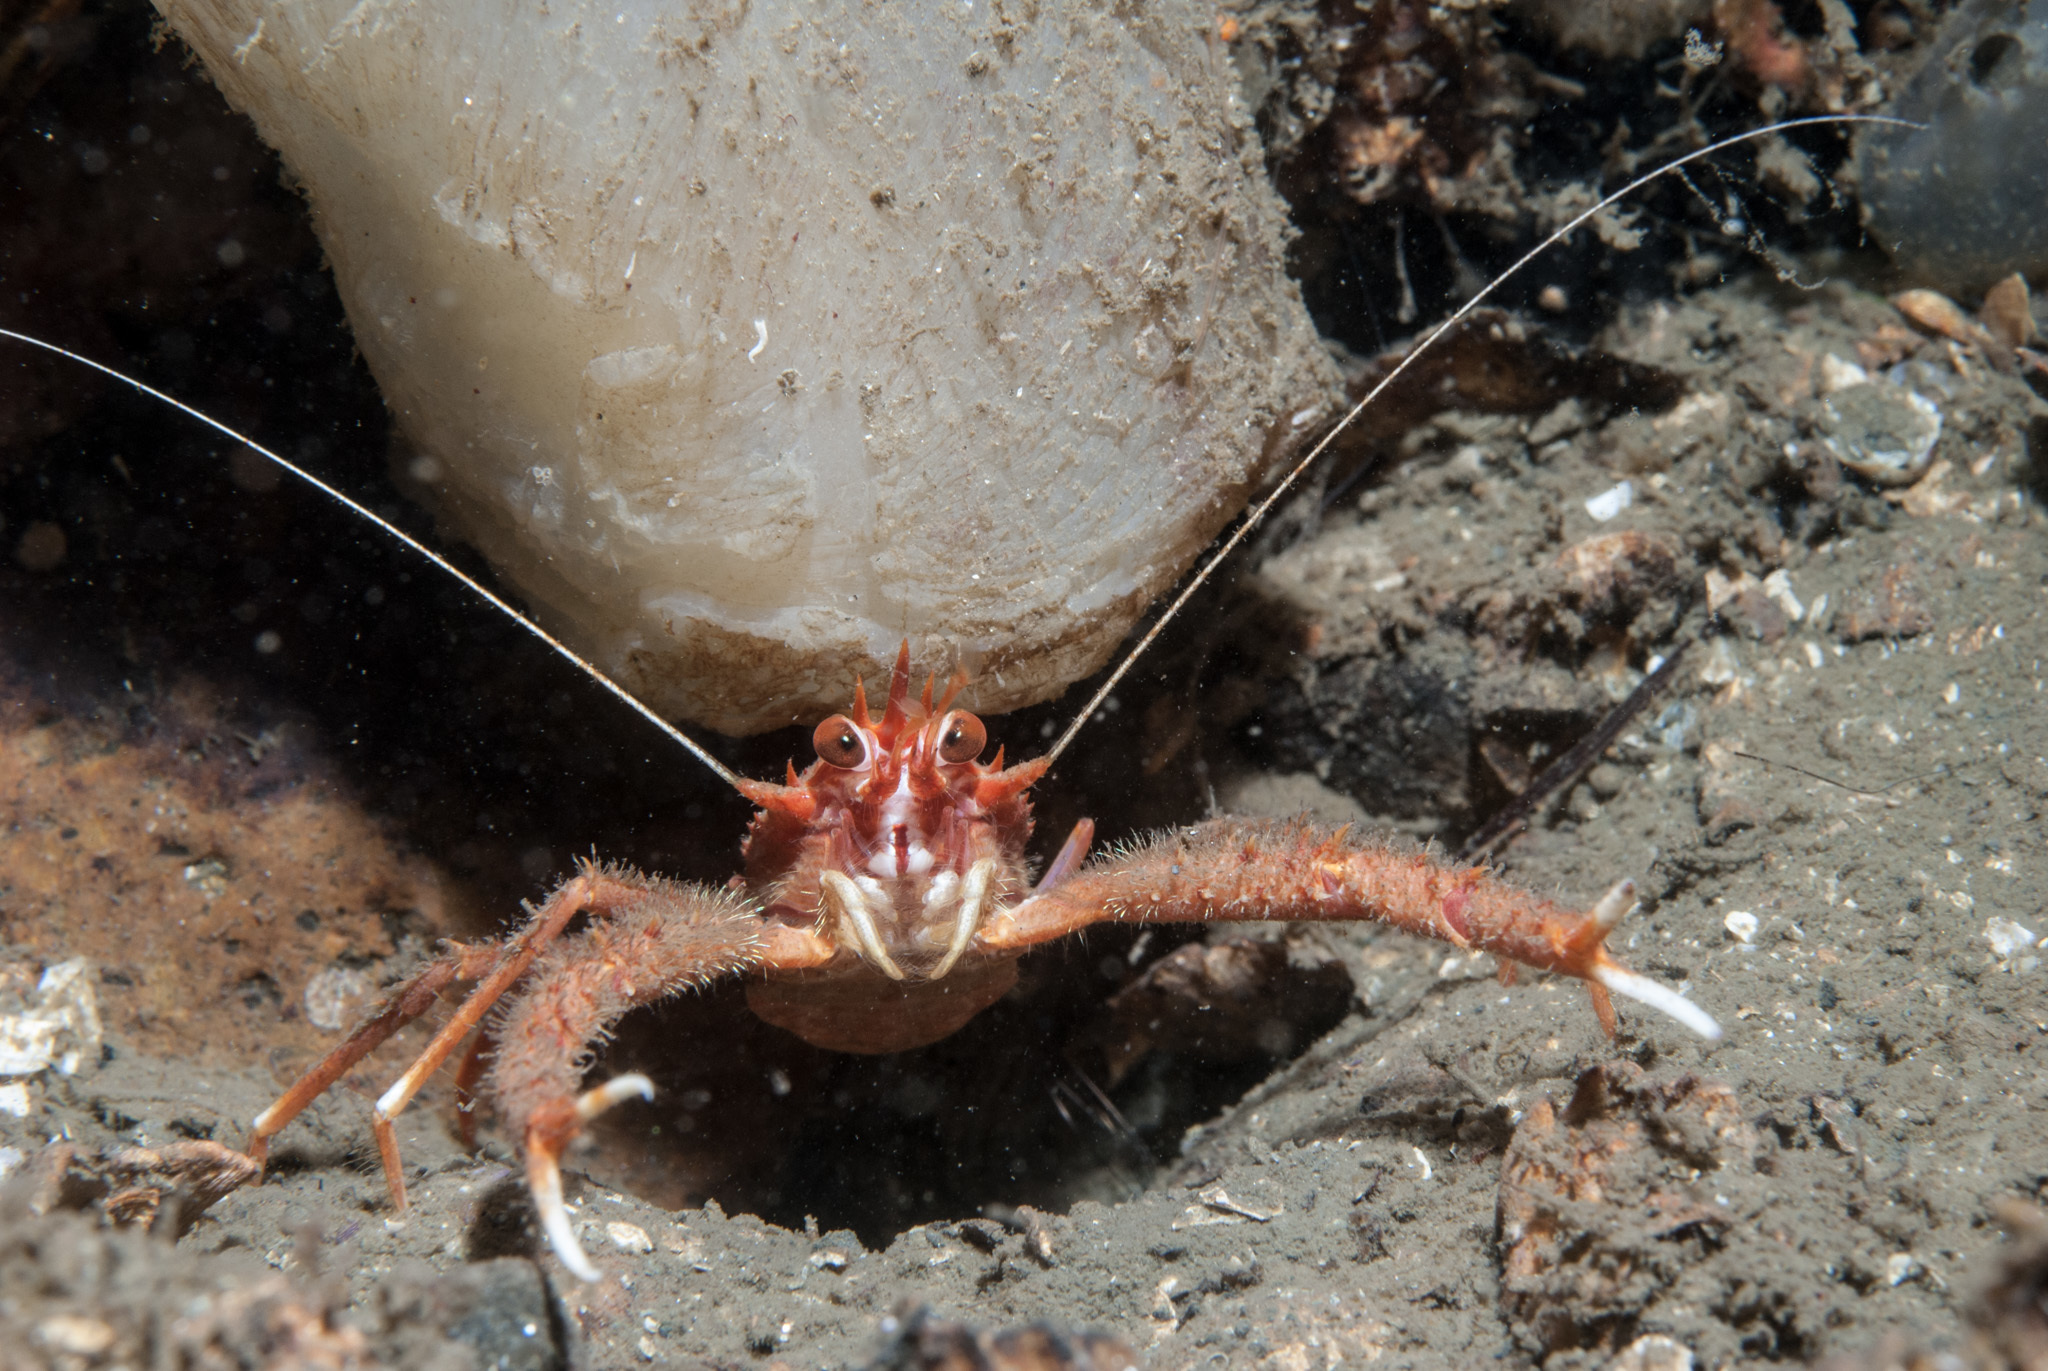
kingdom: Animalia
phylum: Arthropoda
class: Malacostraca
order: Decapoda
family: Munididae
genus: Munida
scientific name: Munida rugosa
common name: Rugose squat lobster
